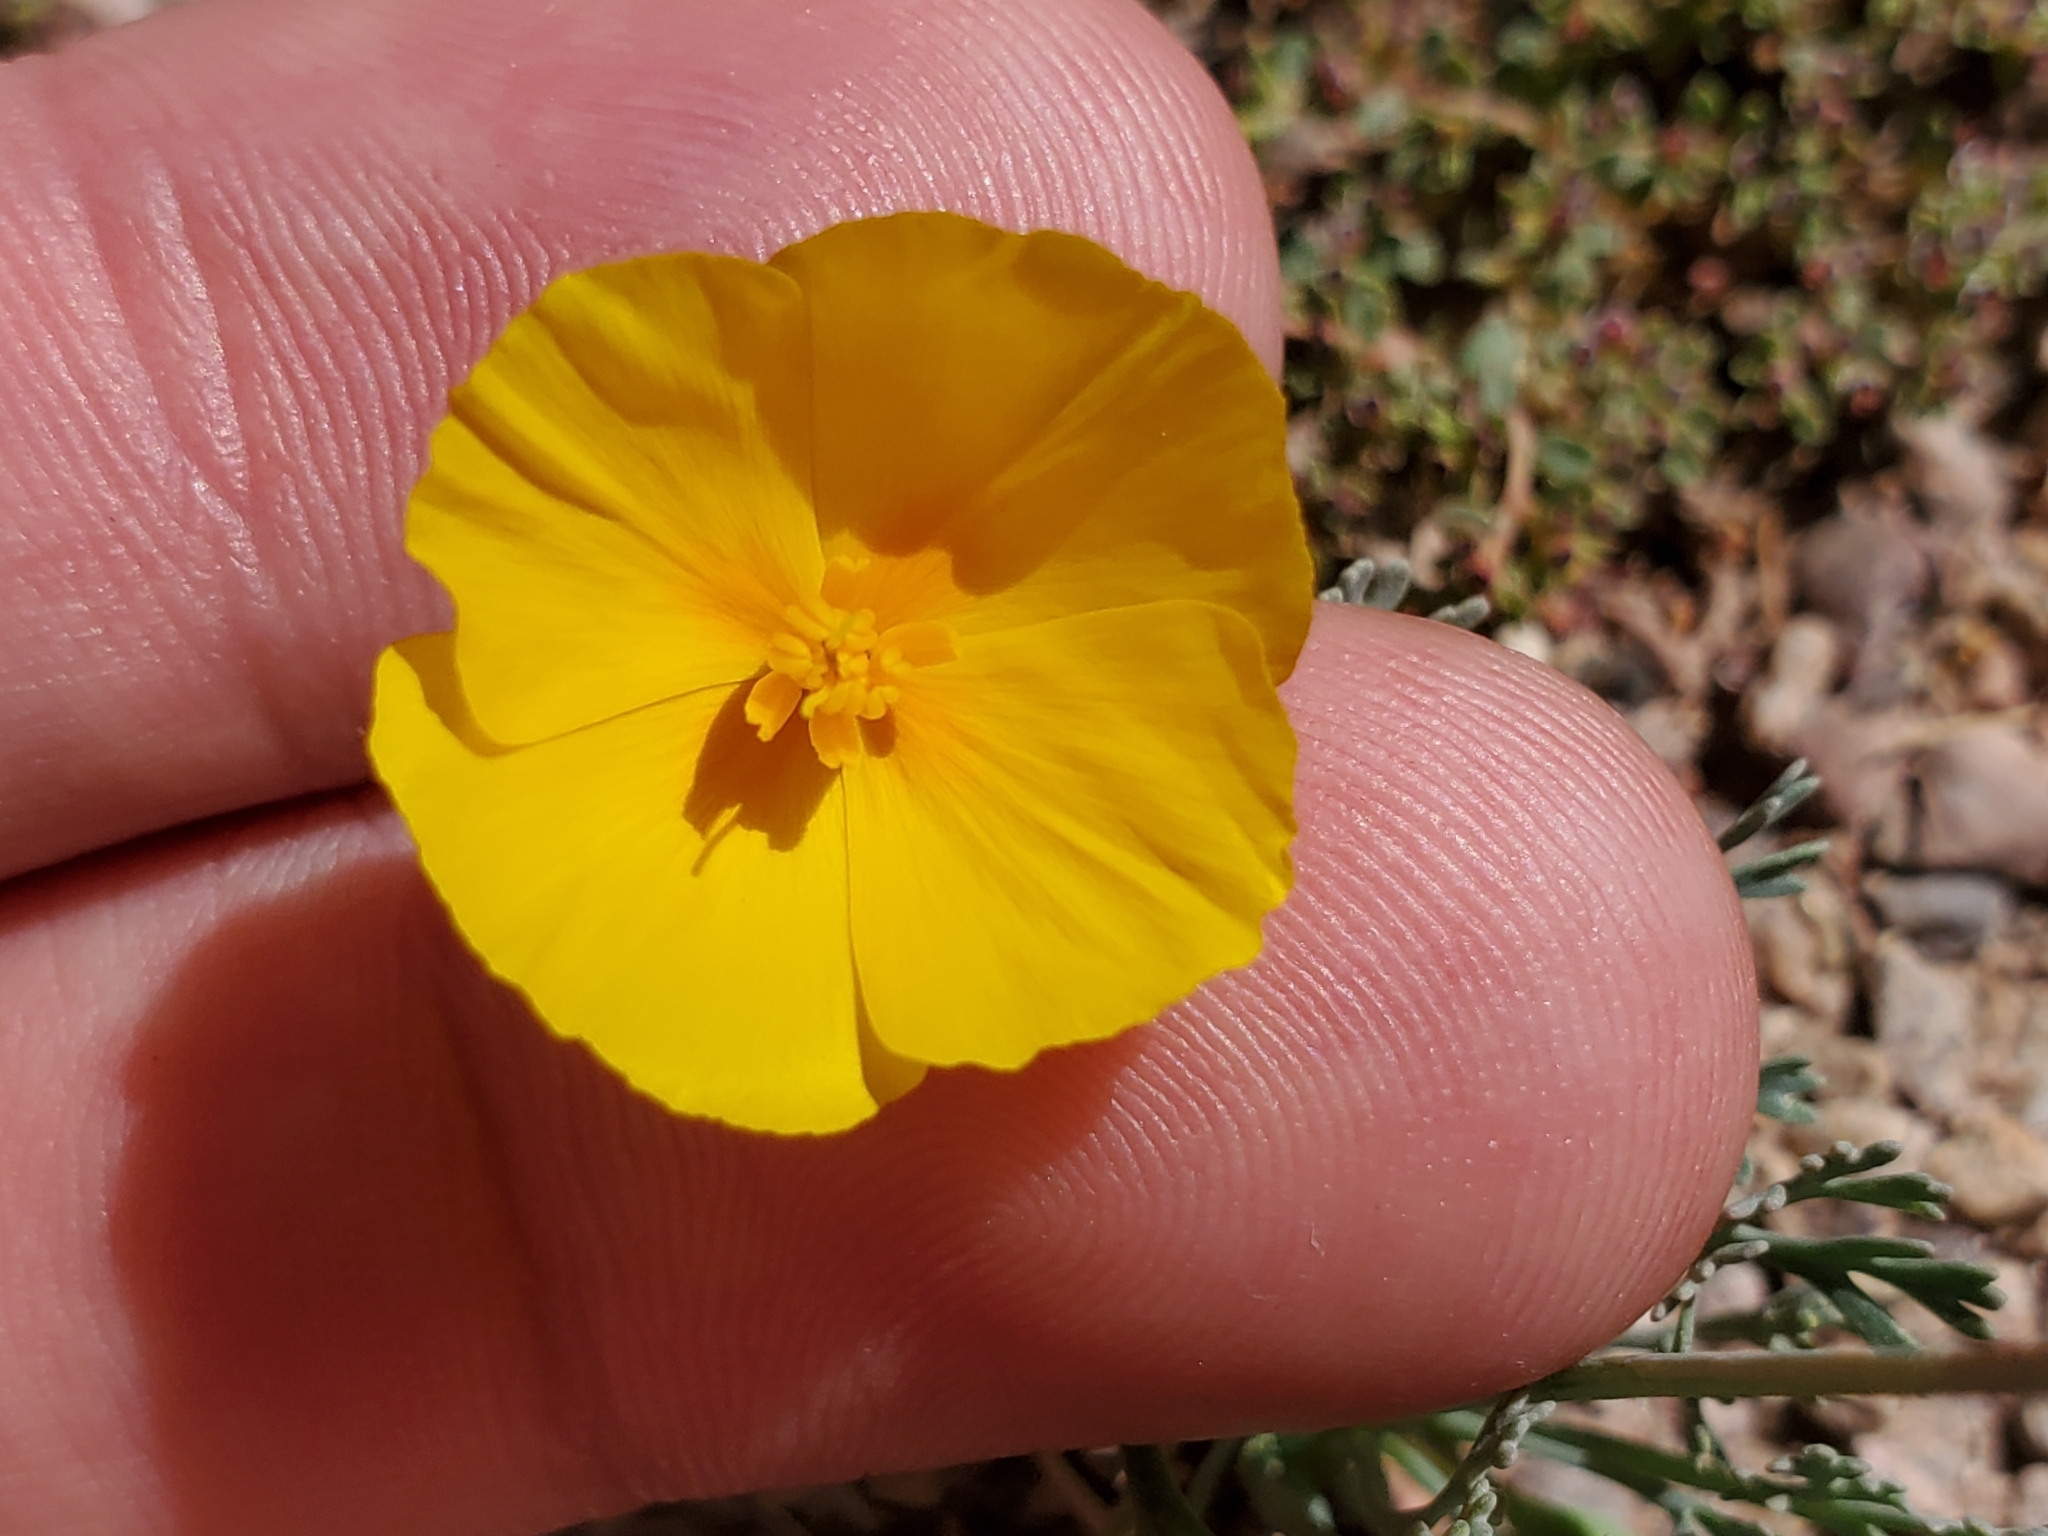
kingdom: Plantae
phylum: Tracheophyta
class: Magnoliopsida
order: Ranunculales
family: Papaveraceae
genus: Eschscholzia
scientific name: Eschscholzia minutiflora
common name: Small-flower california-poppy
